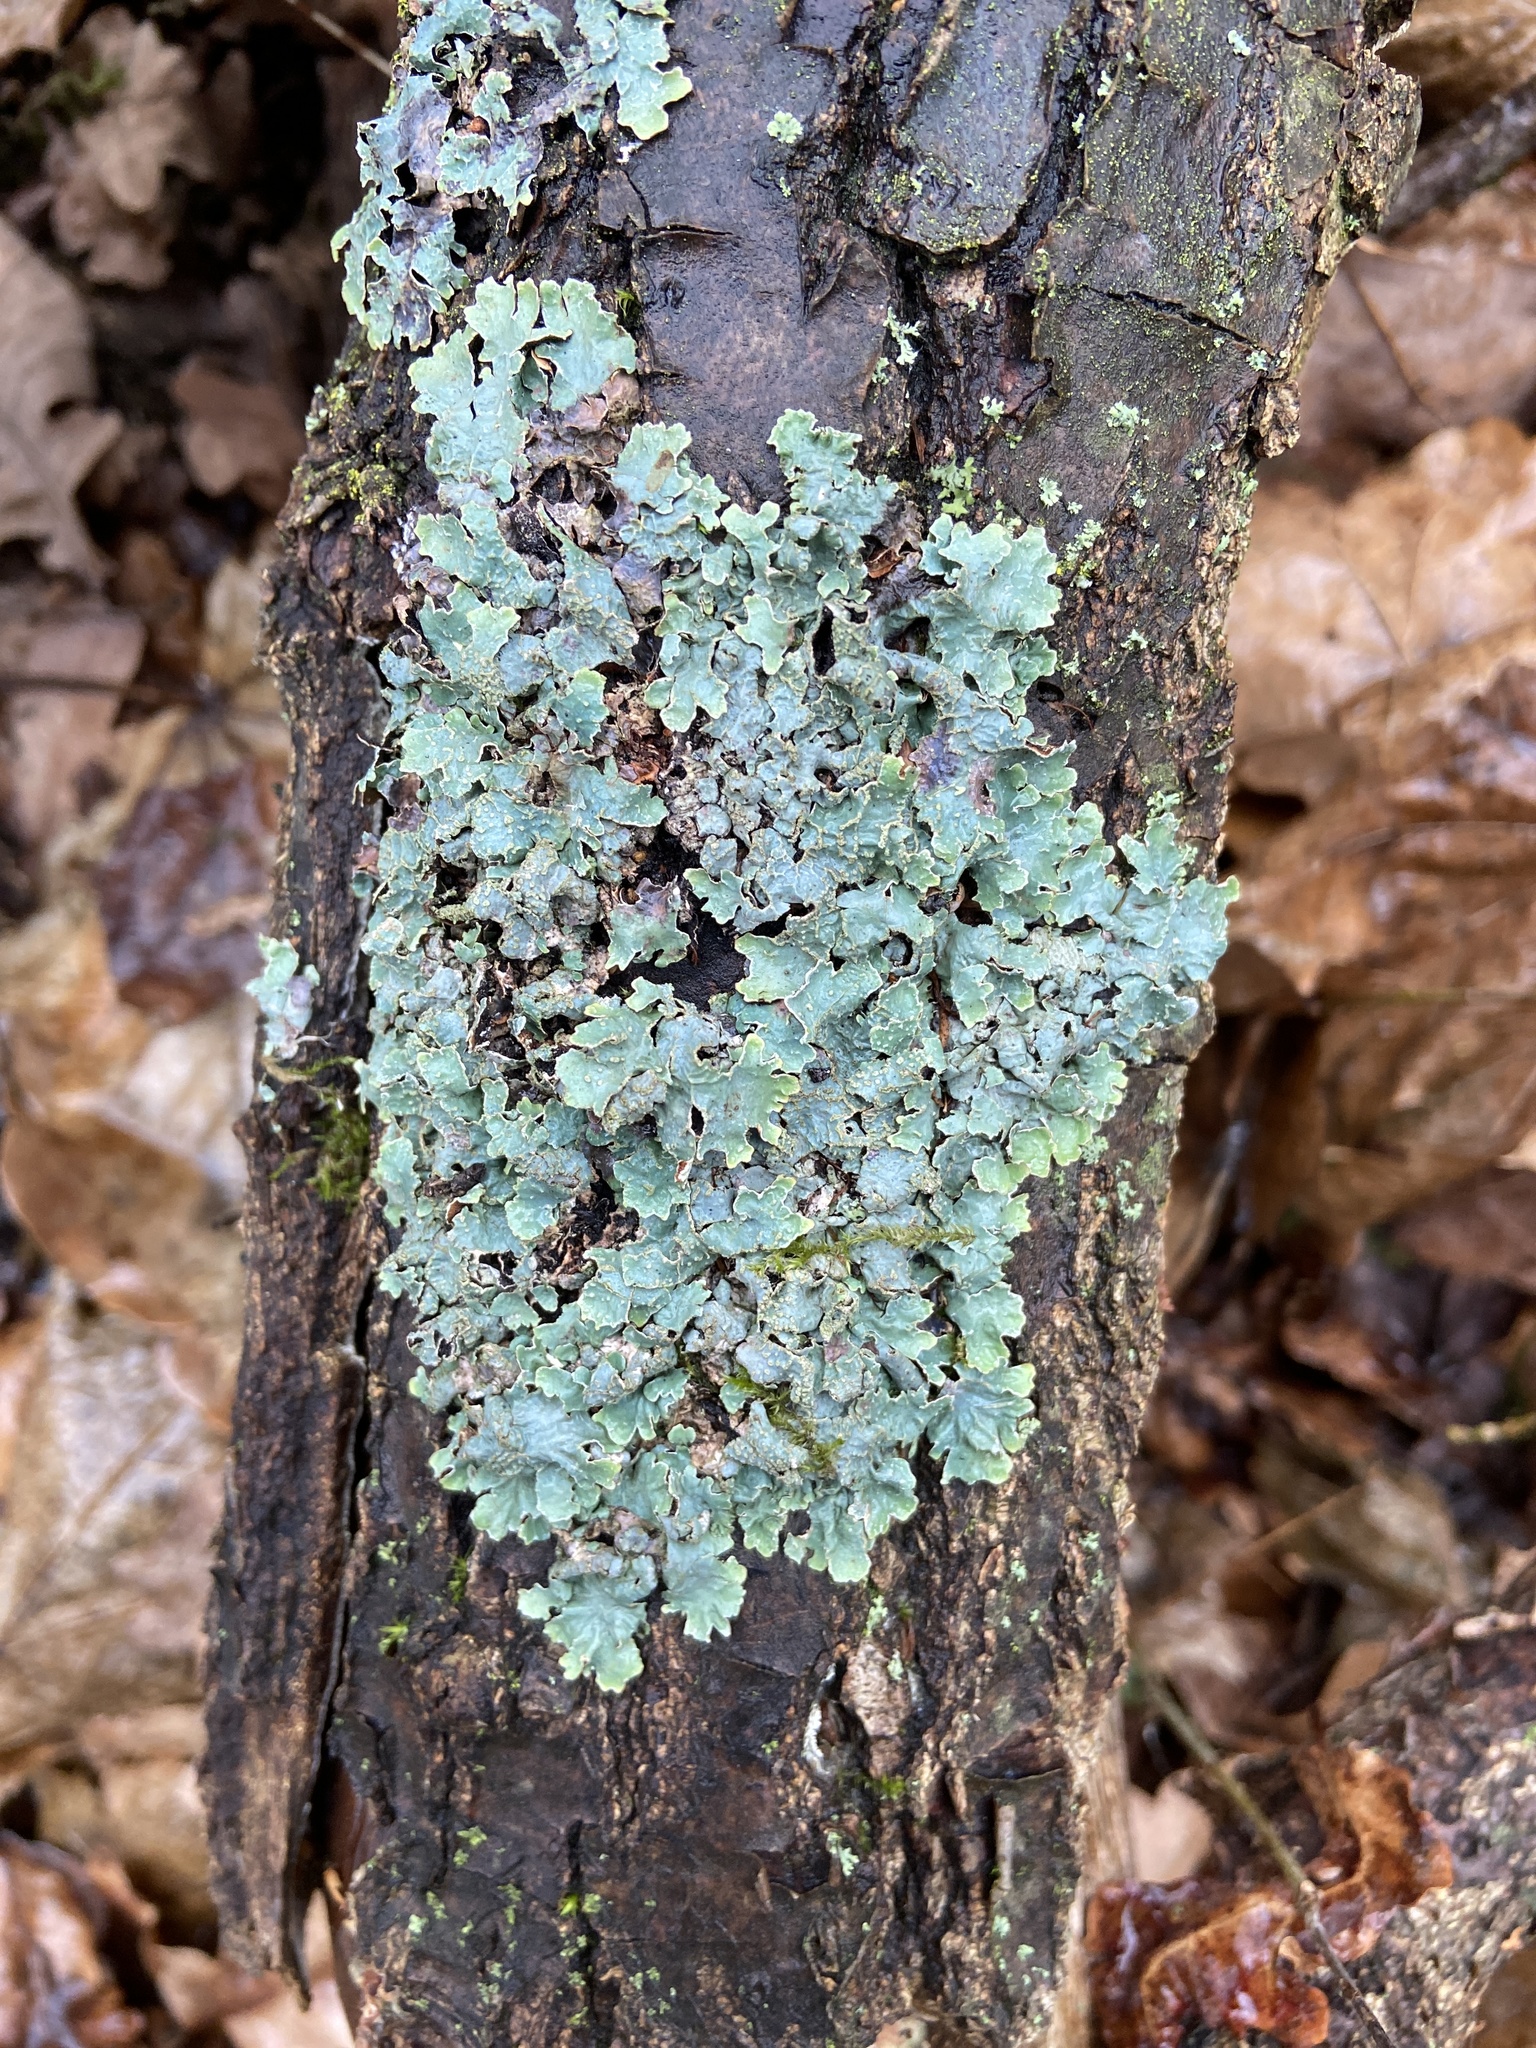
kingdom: Fungi
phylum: Ascomycota
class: Lecanoromycetes
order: Lecanorales
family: Parmeliaceae
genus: Parmelia
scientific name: Parmelia sulcata
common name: Netted shield lichen
